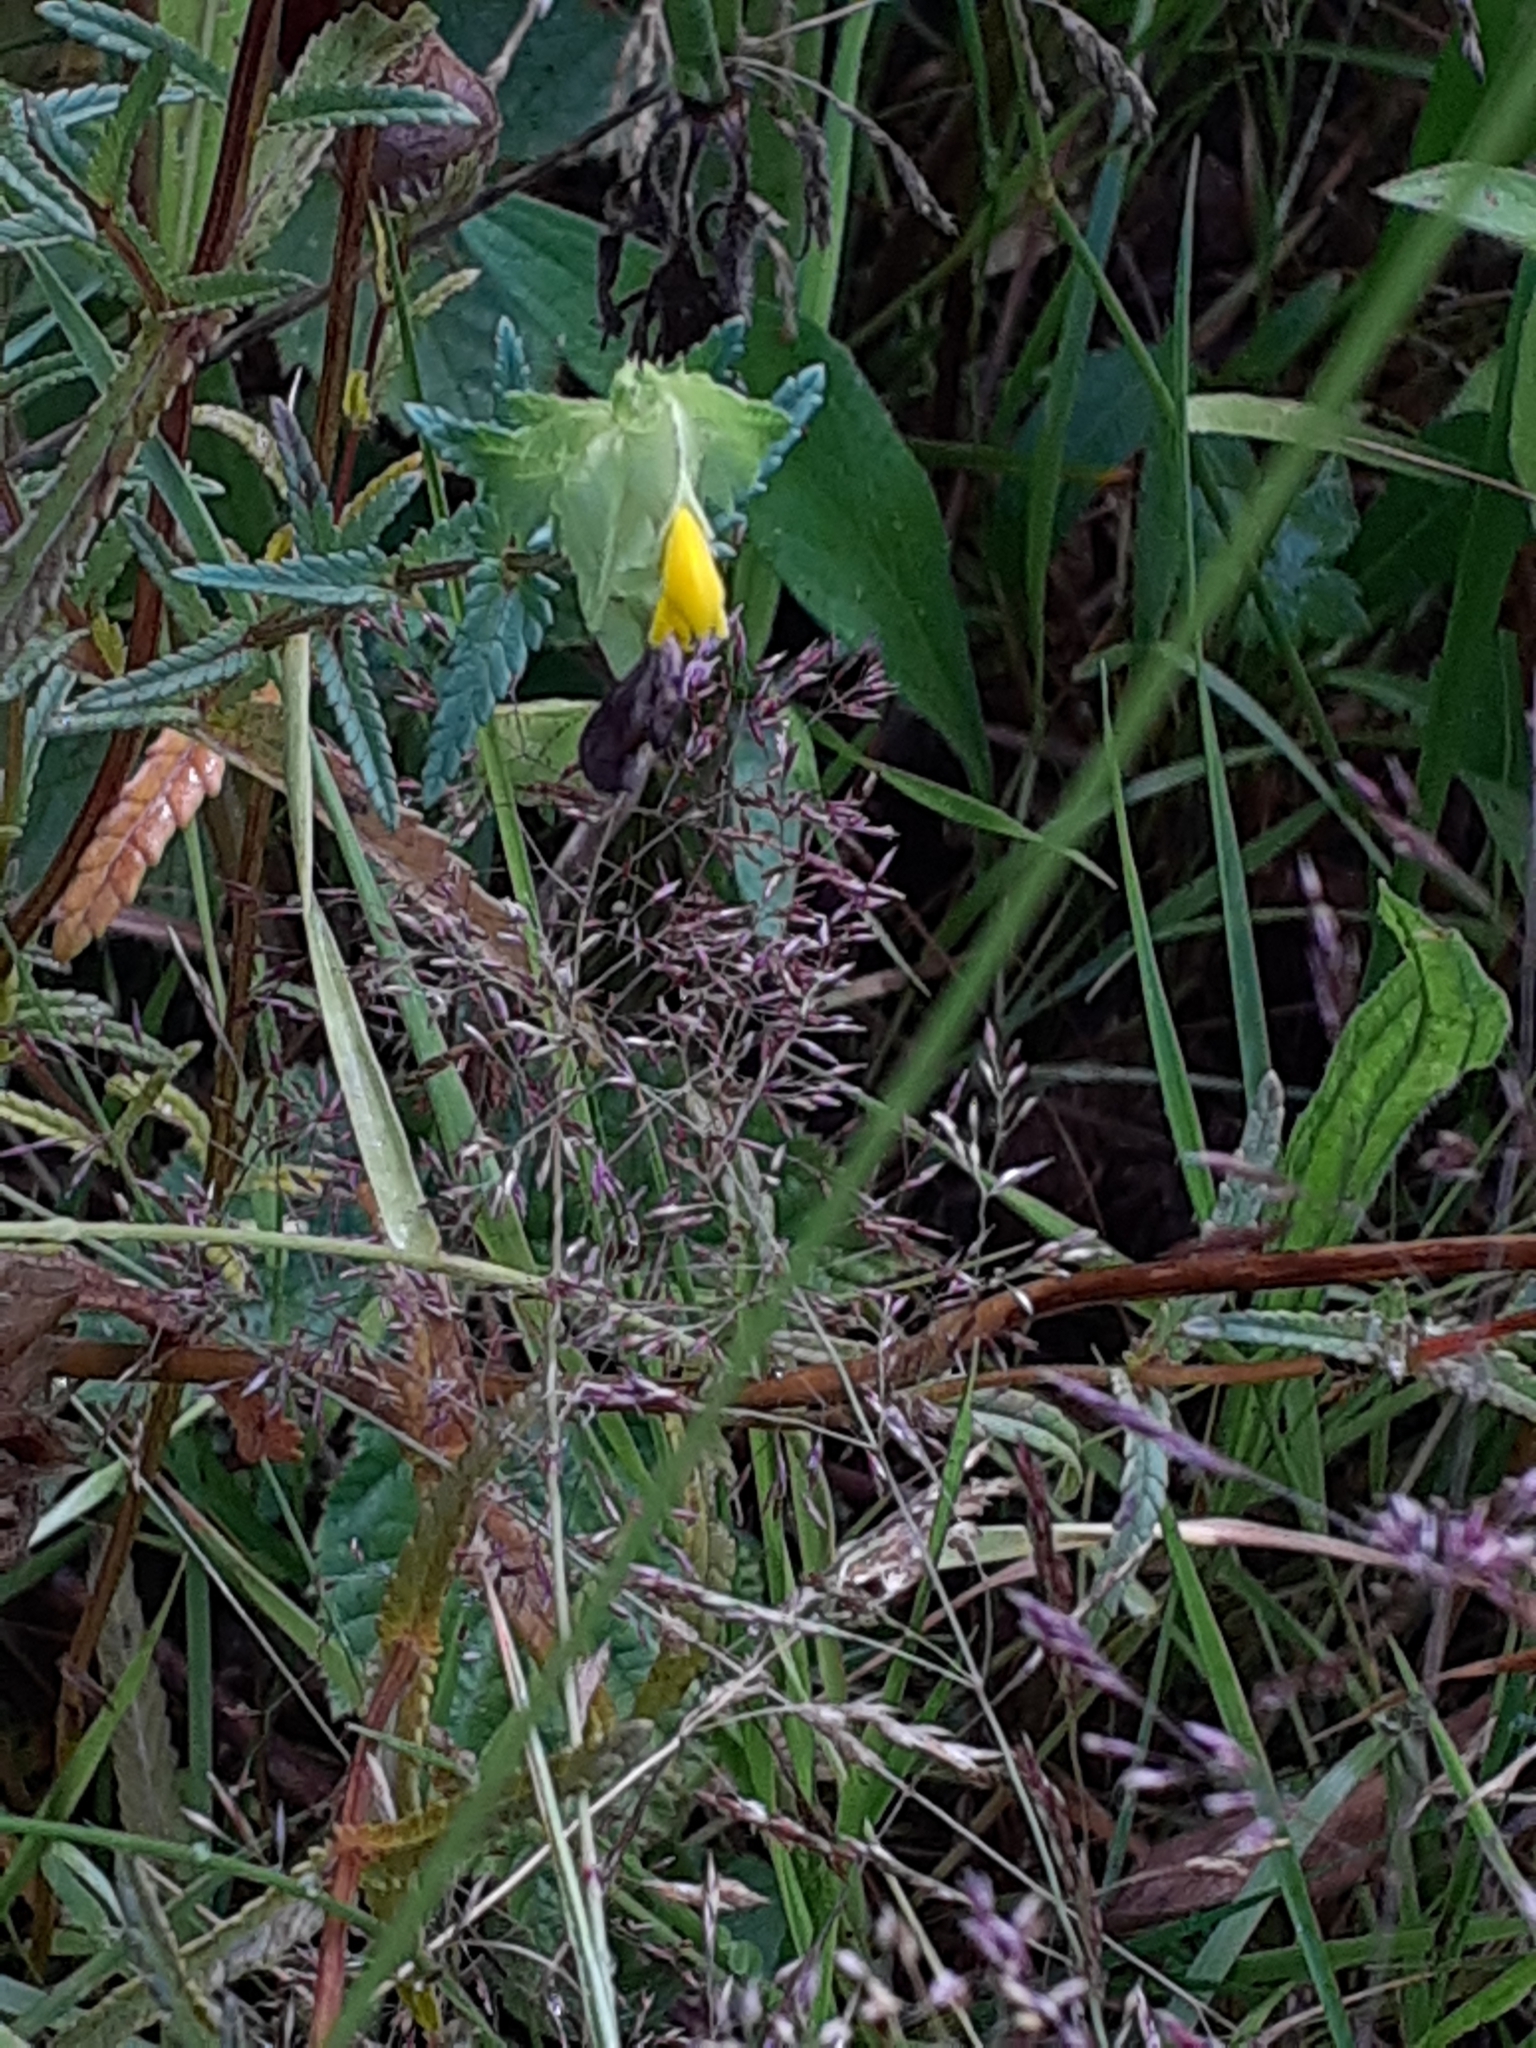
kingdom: Plantae
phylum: Tracheophyta
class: Magnoliopsida
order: Lamiales
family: Orobanchaceae
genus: Rhinanthus
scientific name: Rhinanthus minor
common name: Yellow-rattle
